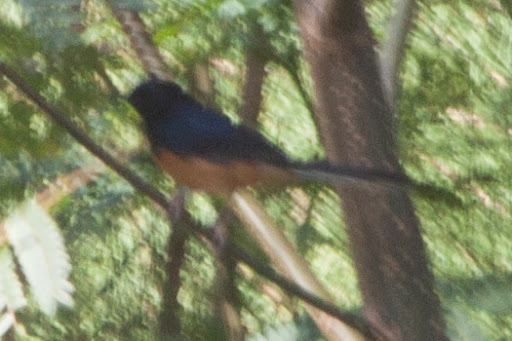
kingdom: Animalia
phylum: Chordata
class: Aves
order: Passeriformes
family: Muscicapidae
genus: Copsychus
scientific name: Copsychus malabaricus
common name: White-rumped shama
